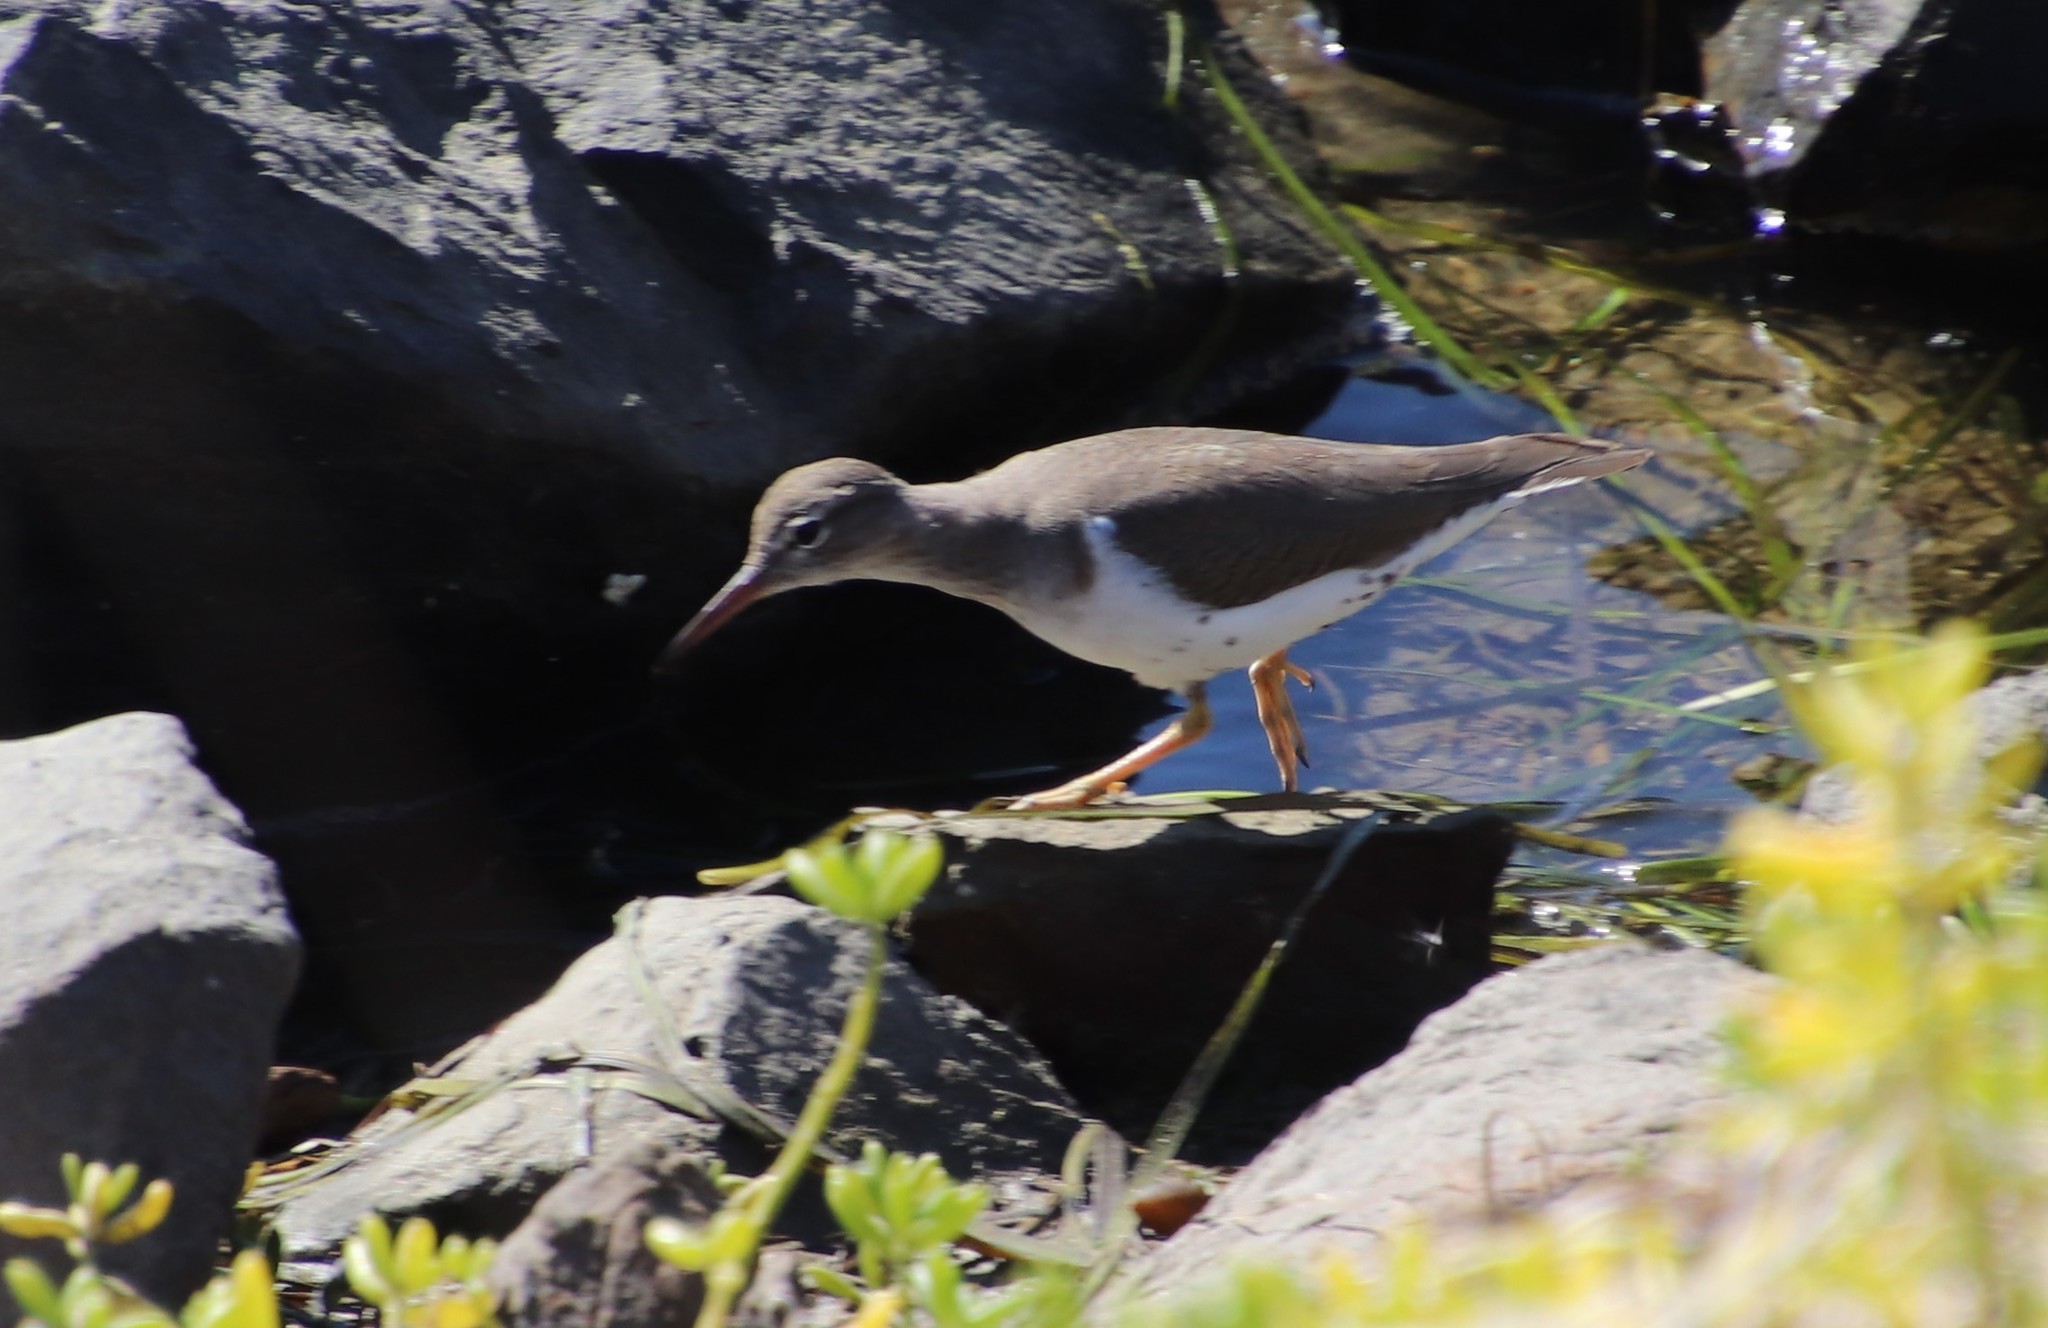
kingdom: Animalia
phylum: Chordata
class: Aves
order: Charadriiformes
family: Scolopacidae
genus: Actitis
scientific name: Actitis macularius
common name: Spotted sandpiper
